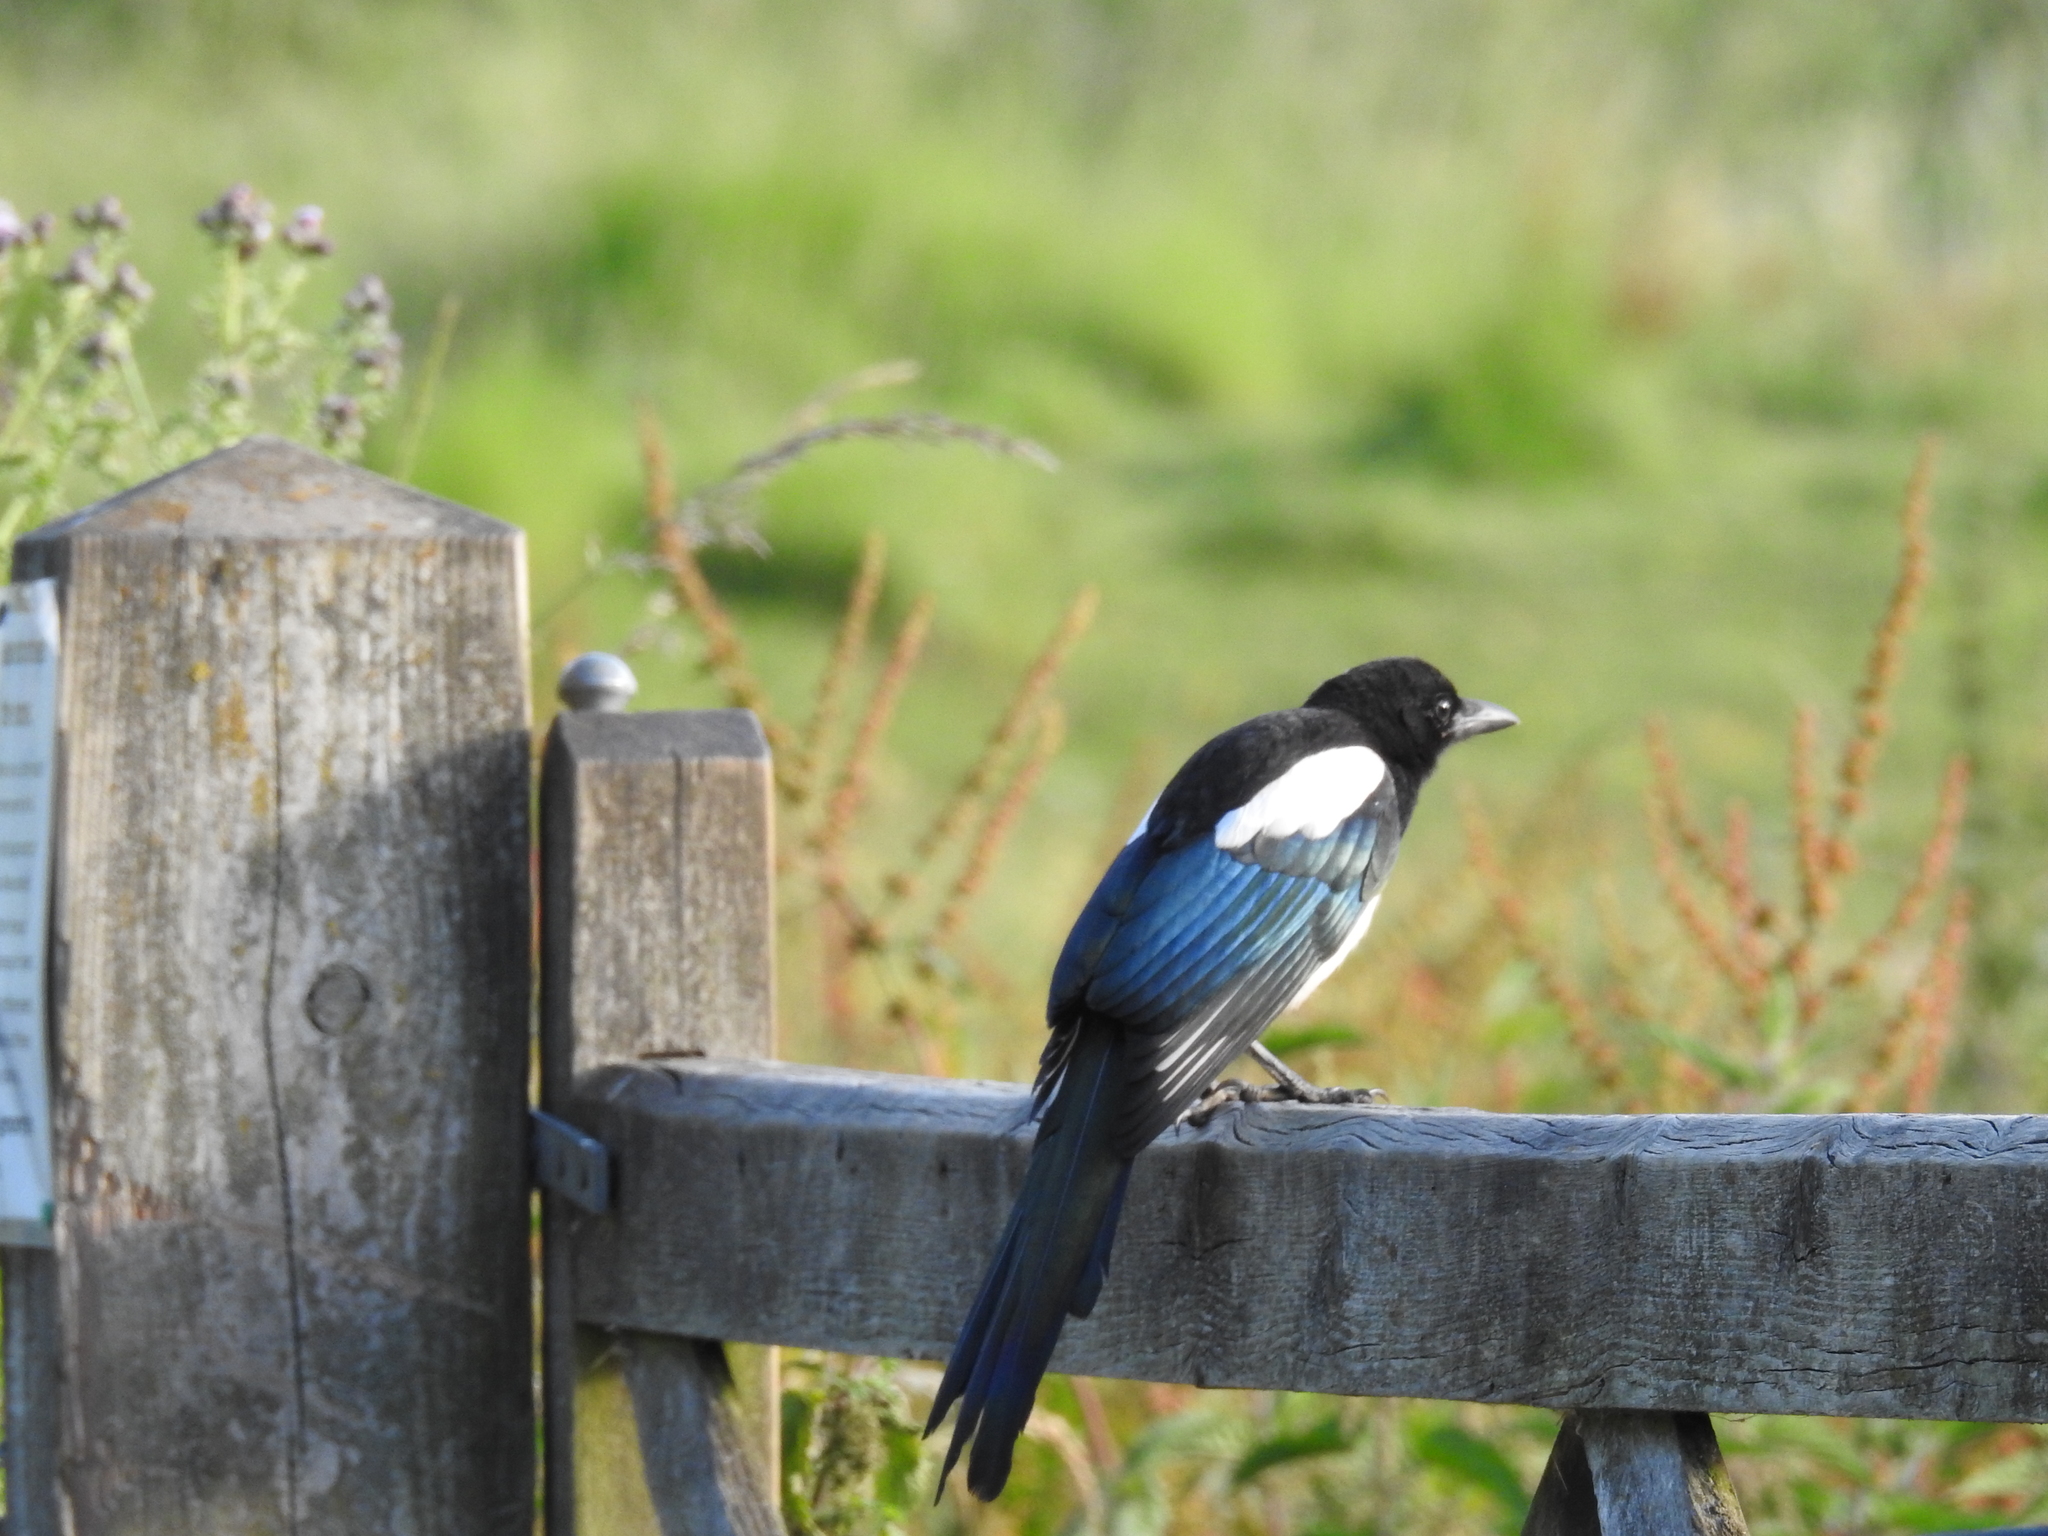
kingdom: Animalia
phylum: Chordata
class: Aves
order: Passeriformes
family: Corvidae
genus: Pica
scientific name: Pica pica
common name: Eurasian magpie
